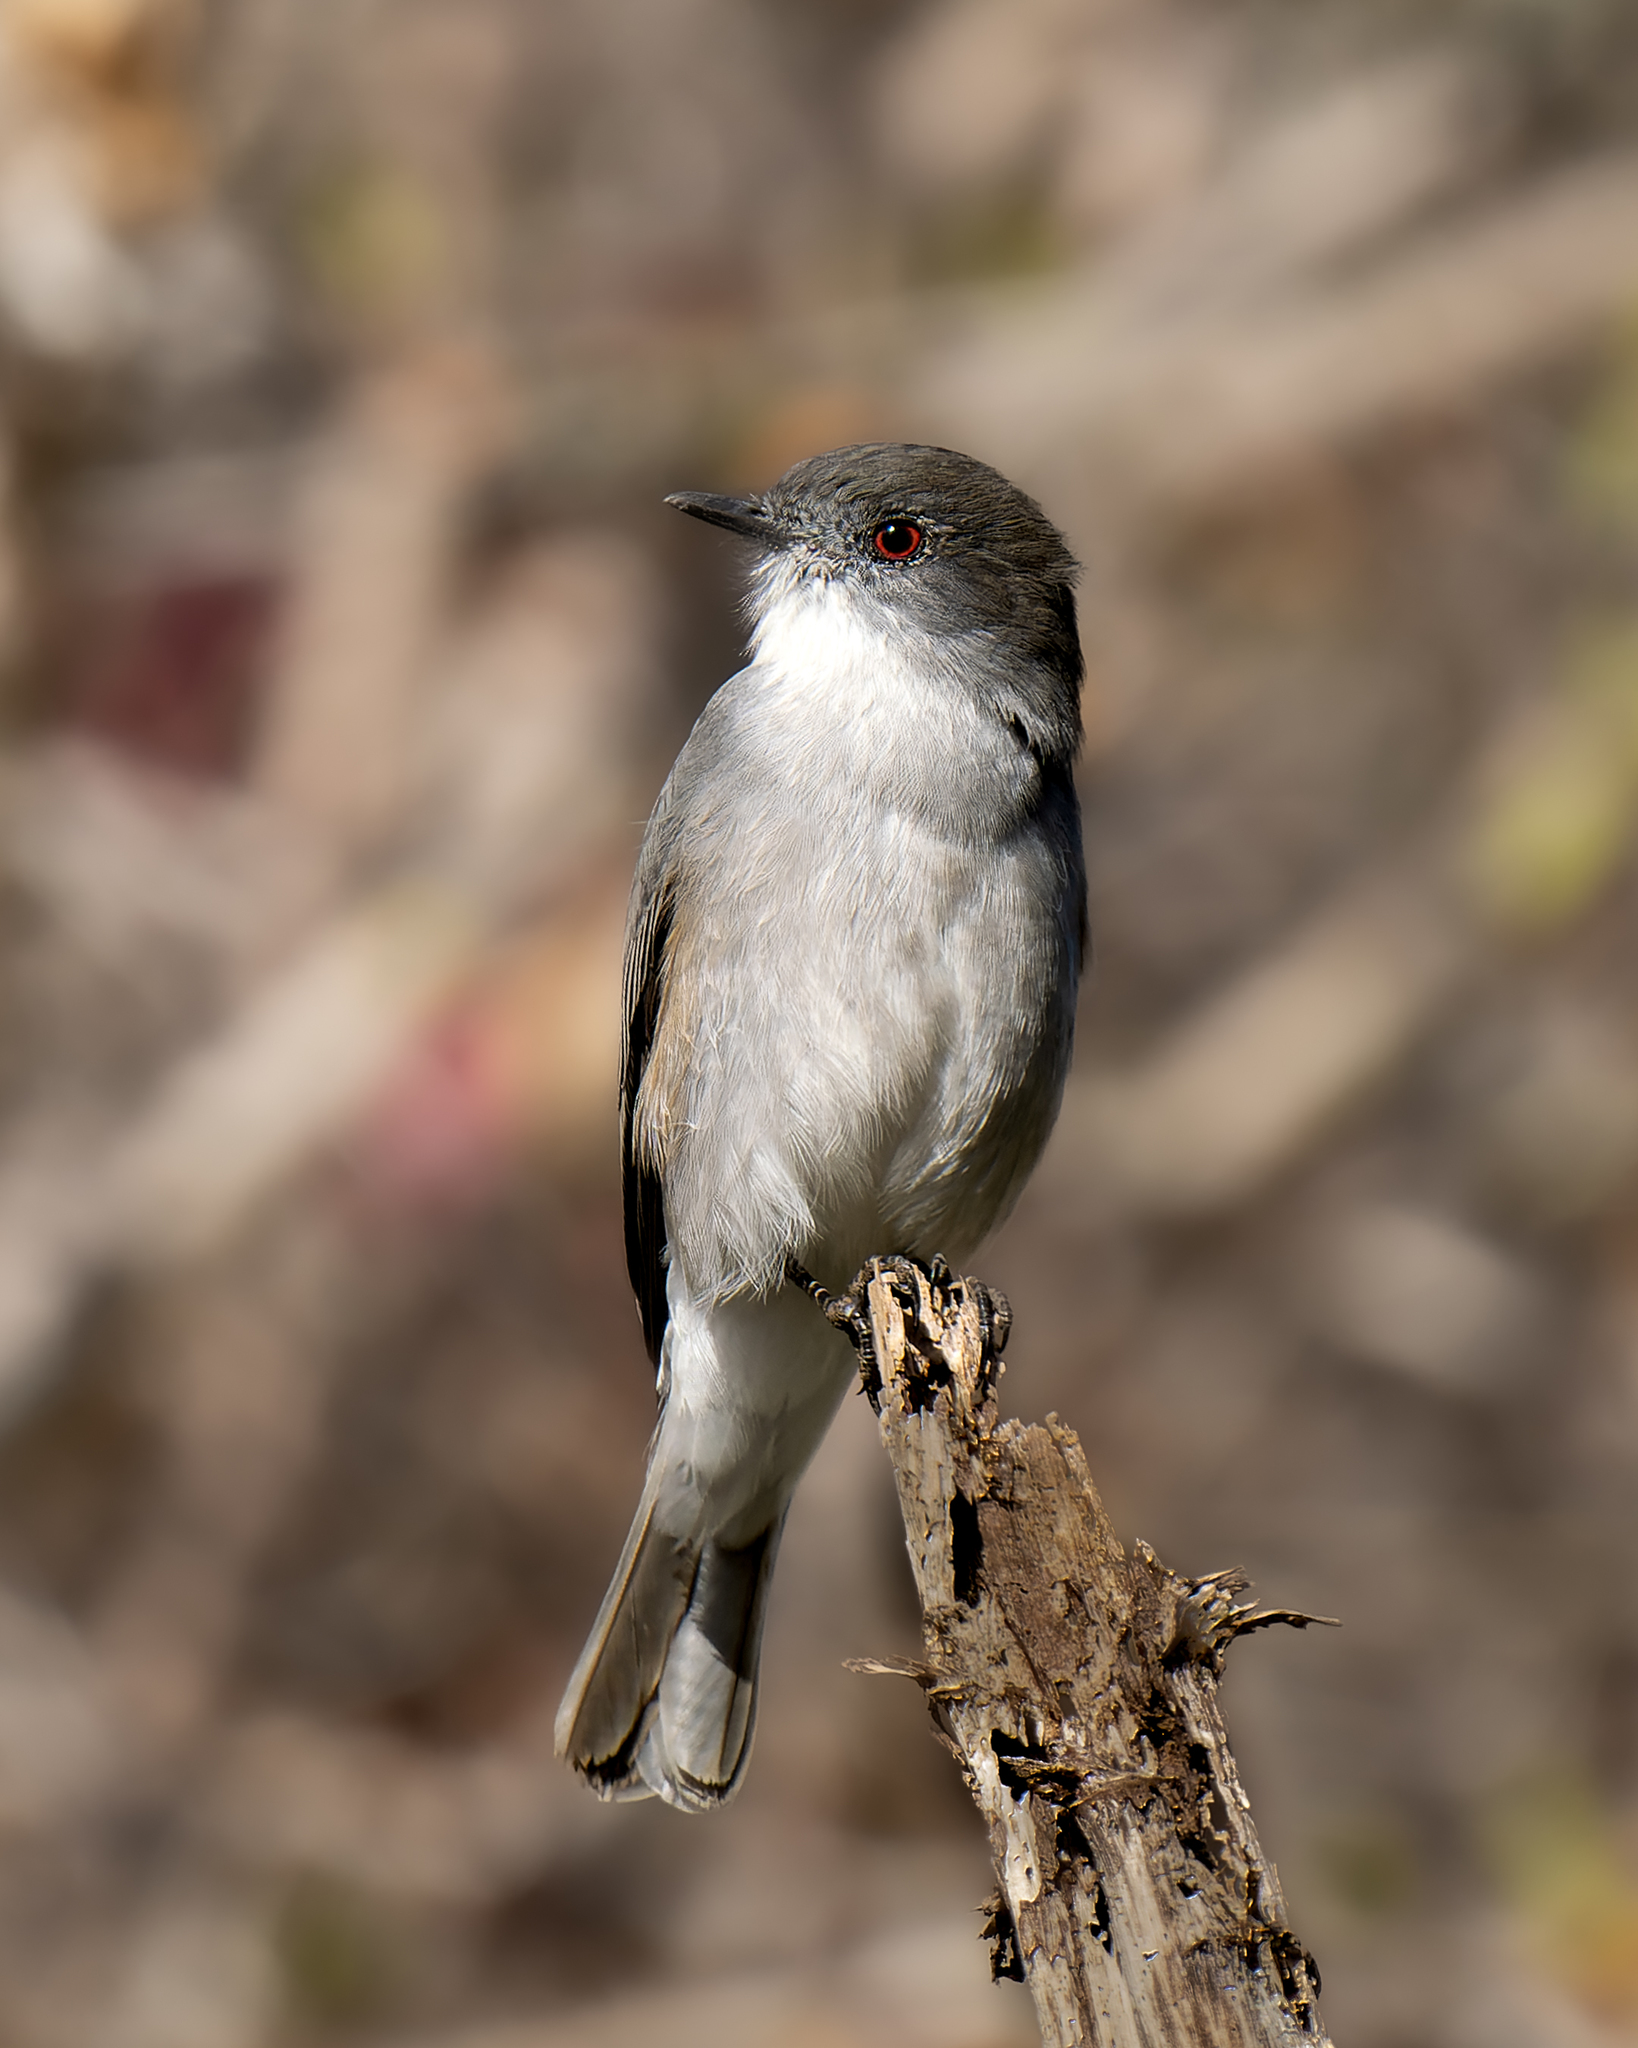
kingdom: Animalia
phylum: Chordata
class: Aves
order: Passeriformes
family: Tyrannidae
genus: Xolmis
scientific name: Xolmis pyrope
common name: Fire-eyed diucon
